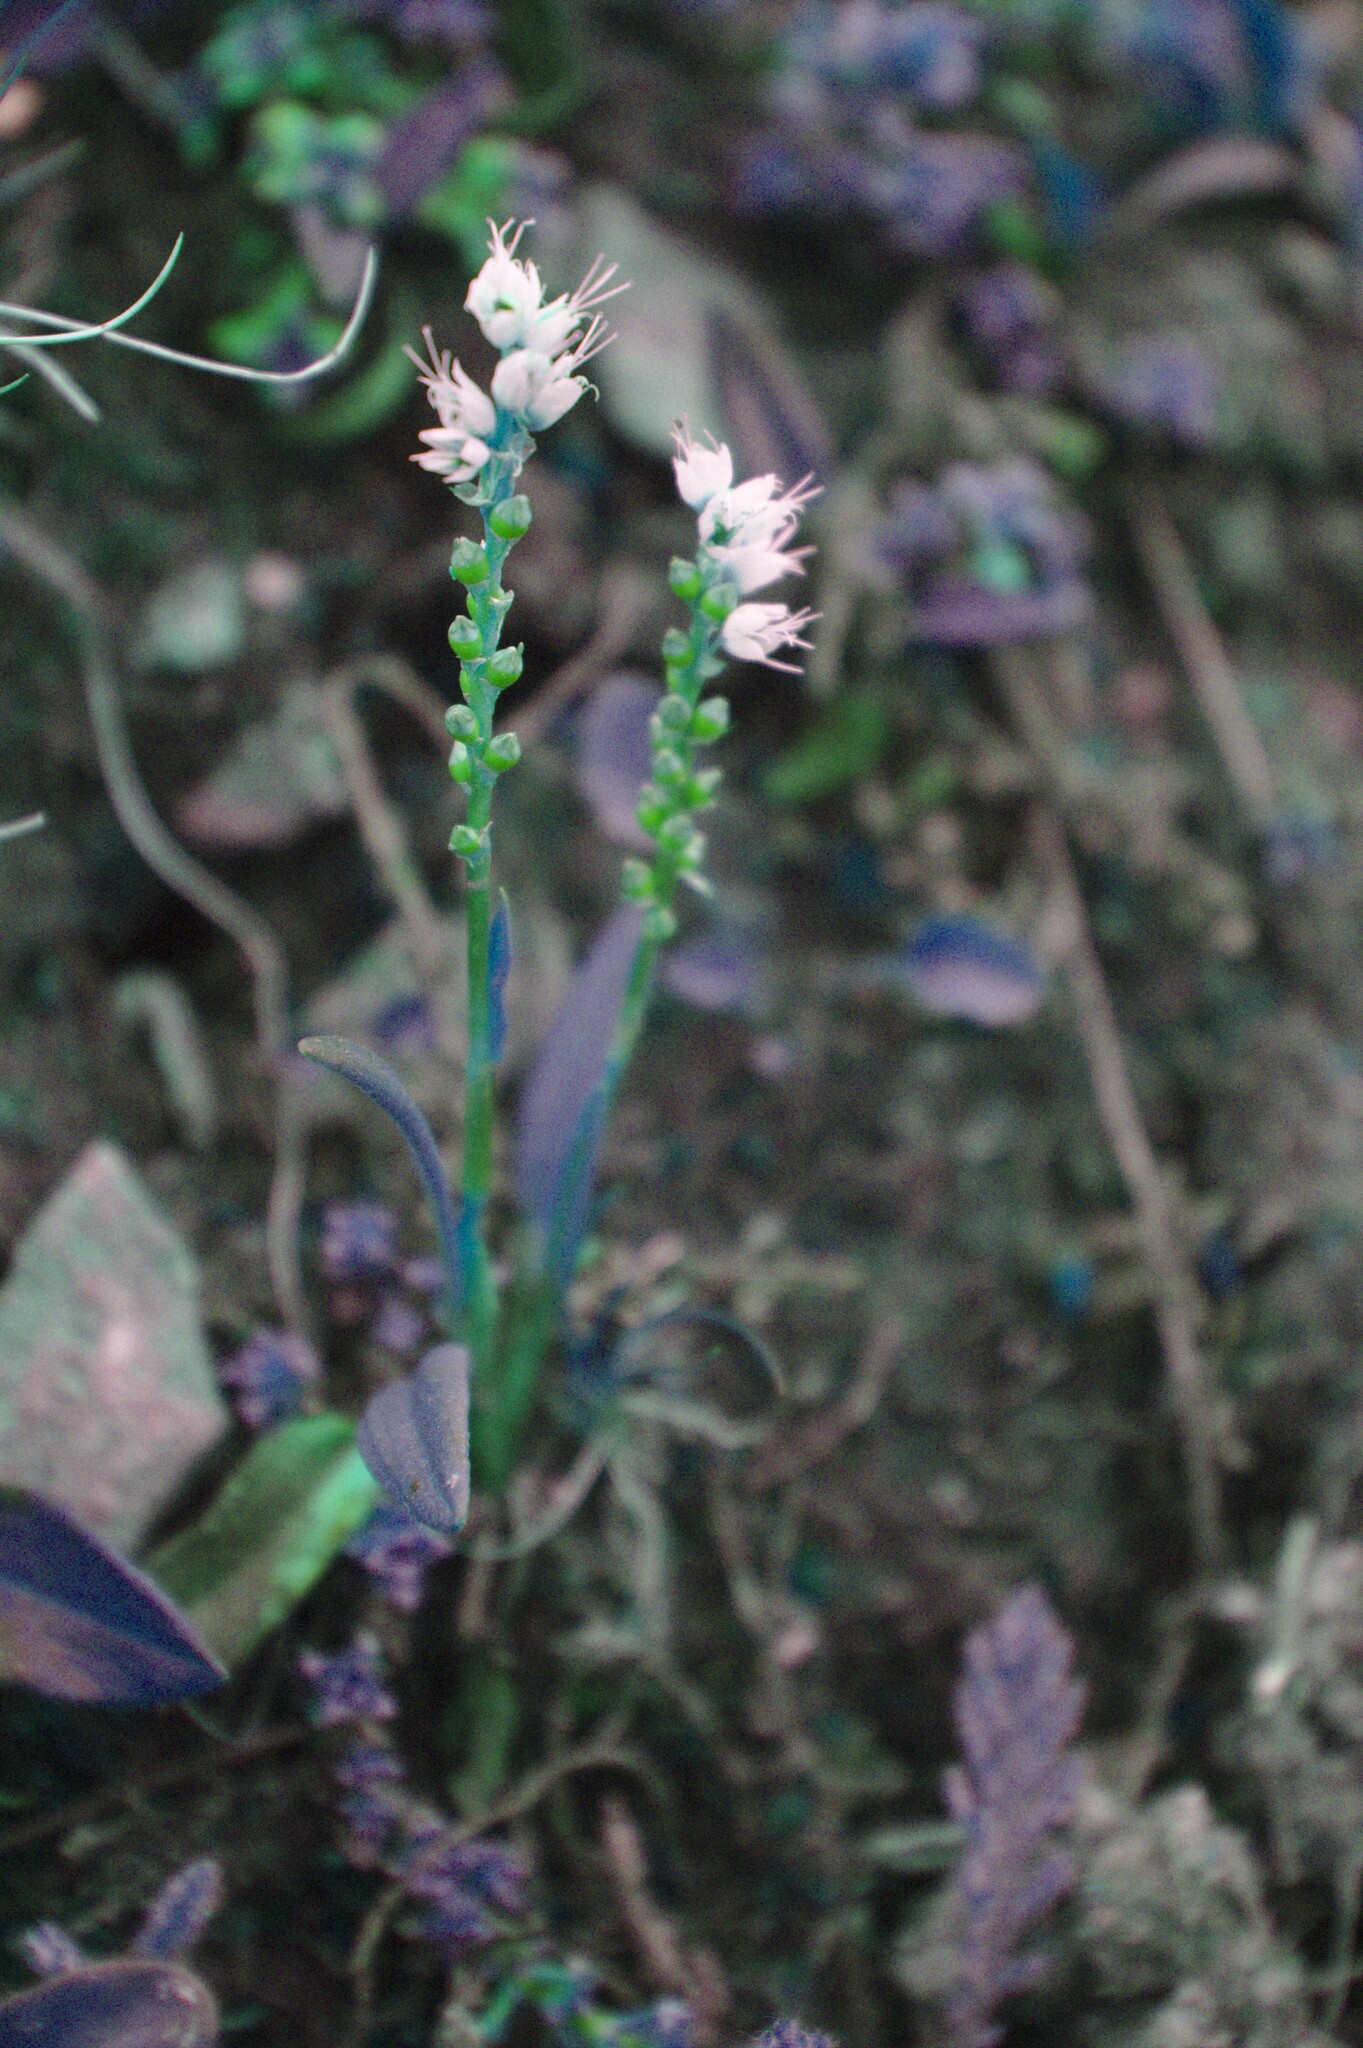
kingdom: Plantae
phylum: Tracheophyta
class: Magnoliopsida
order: Caryophyllales
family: Polygonaceae
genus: Bistorta
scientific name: Bistorta vivipara
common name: Alpine bistort
